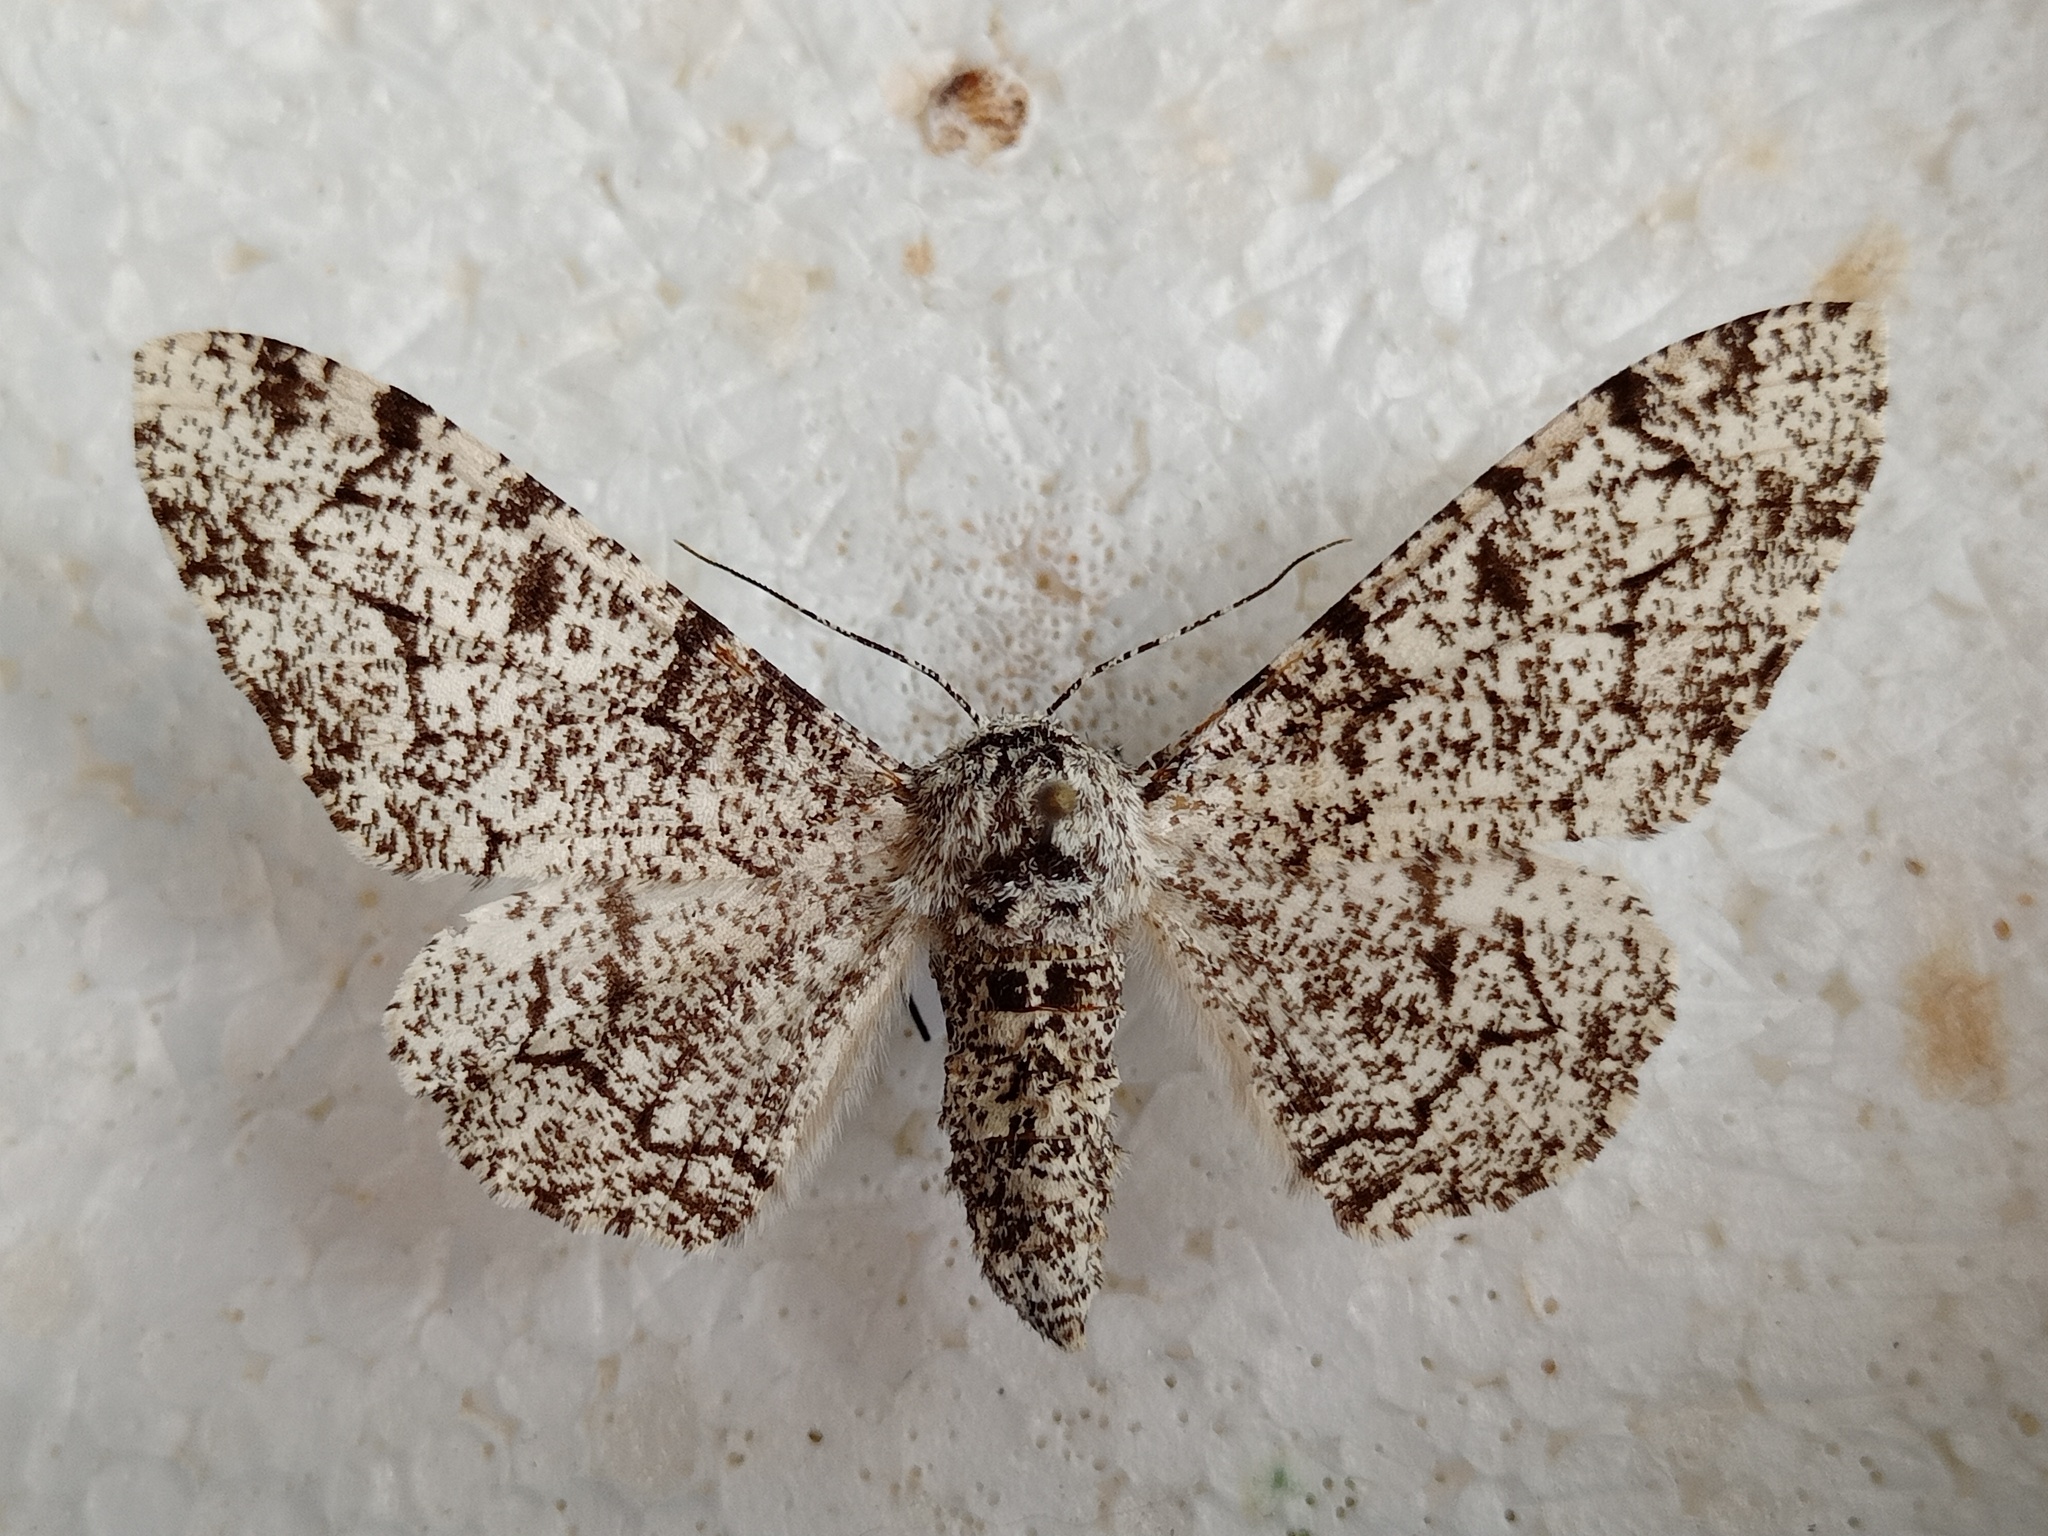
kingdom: Animalia
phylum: Arthropoda
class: Insecta
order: Lepidoptera
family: Geometridae
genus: Biston
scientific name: Biston betularia
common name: Peppered moth
